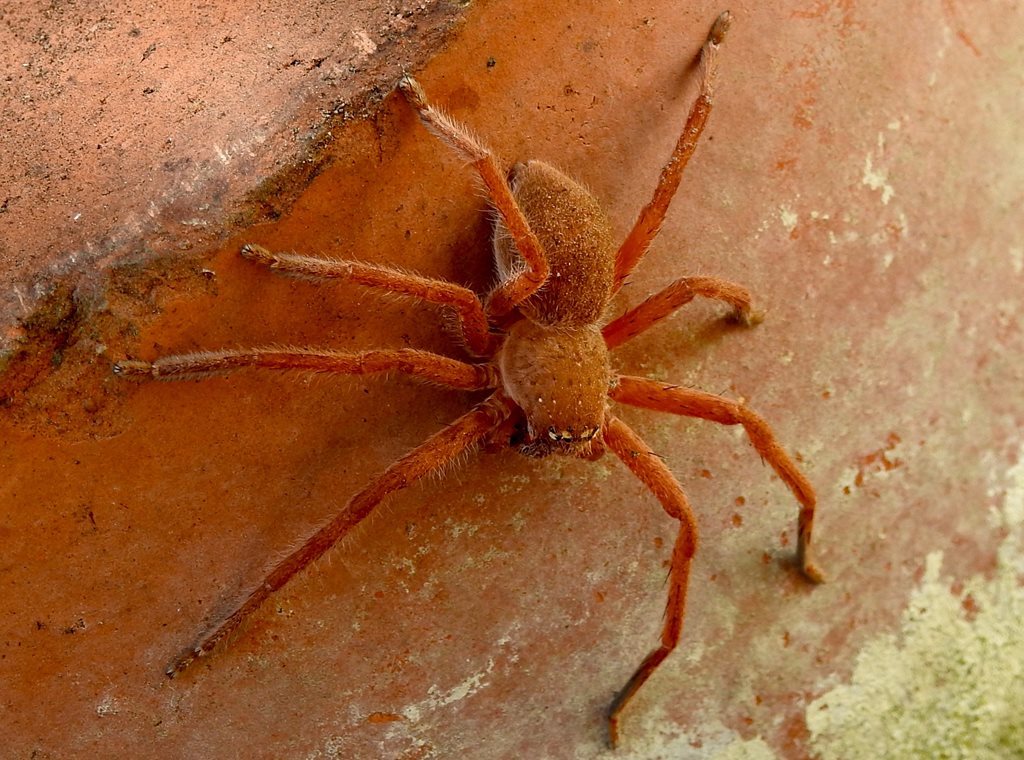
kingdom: Animalia
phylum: Arthropoda
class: Arachnida
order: Araneae
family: Sparassidae
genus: Neosparassus
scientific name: Neosparassus diana
